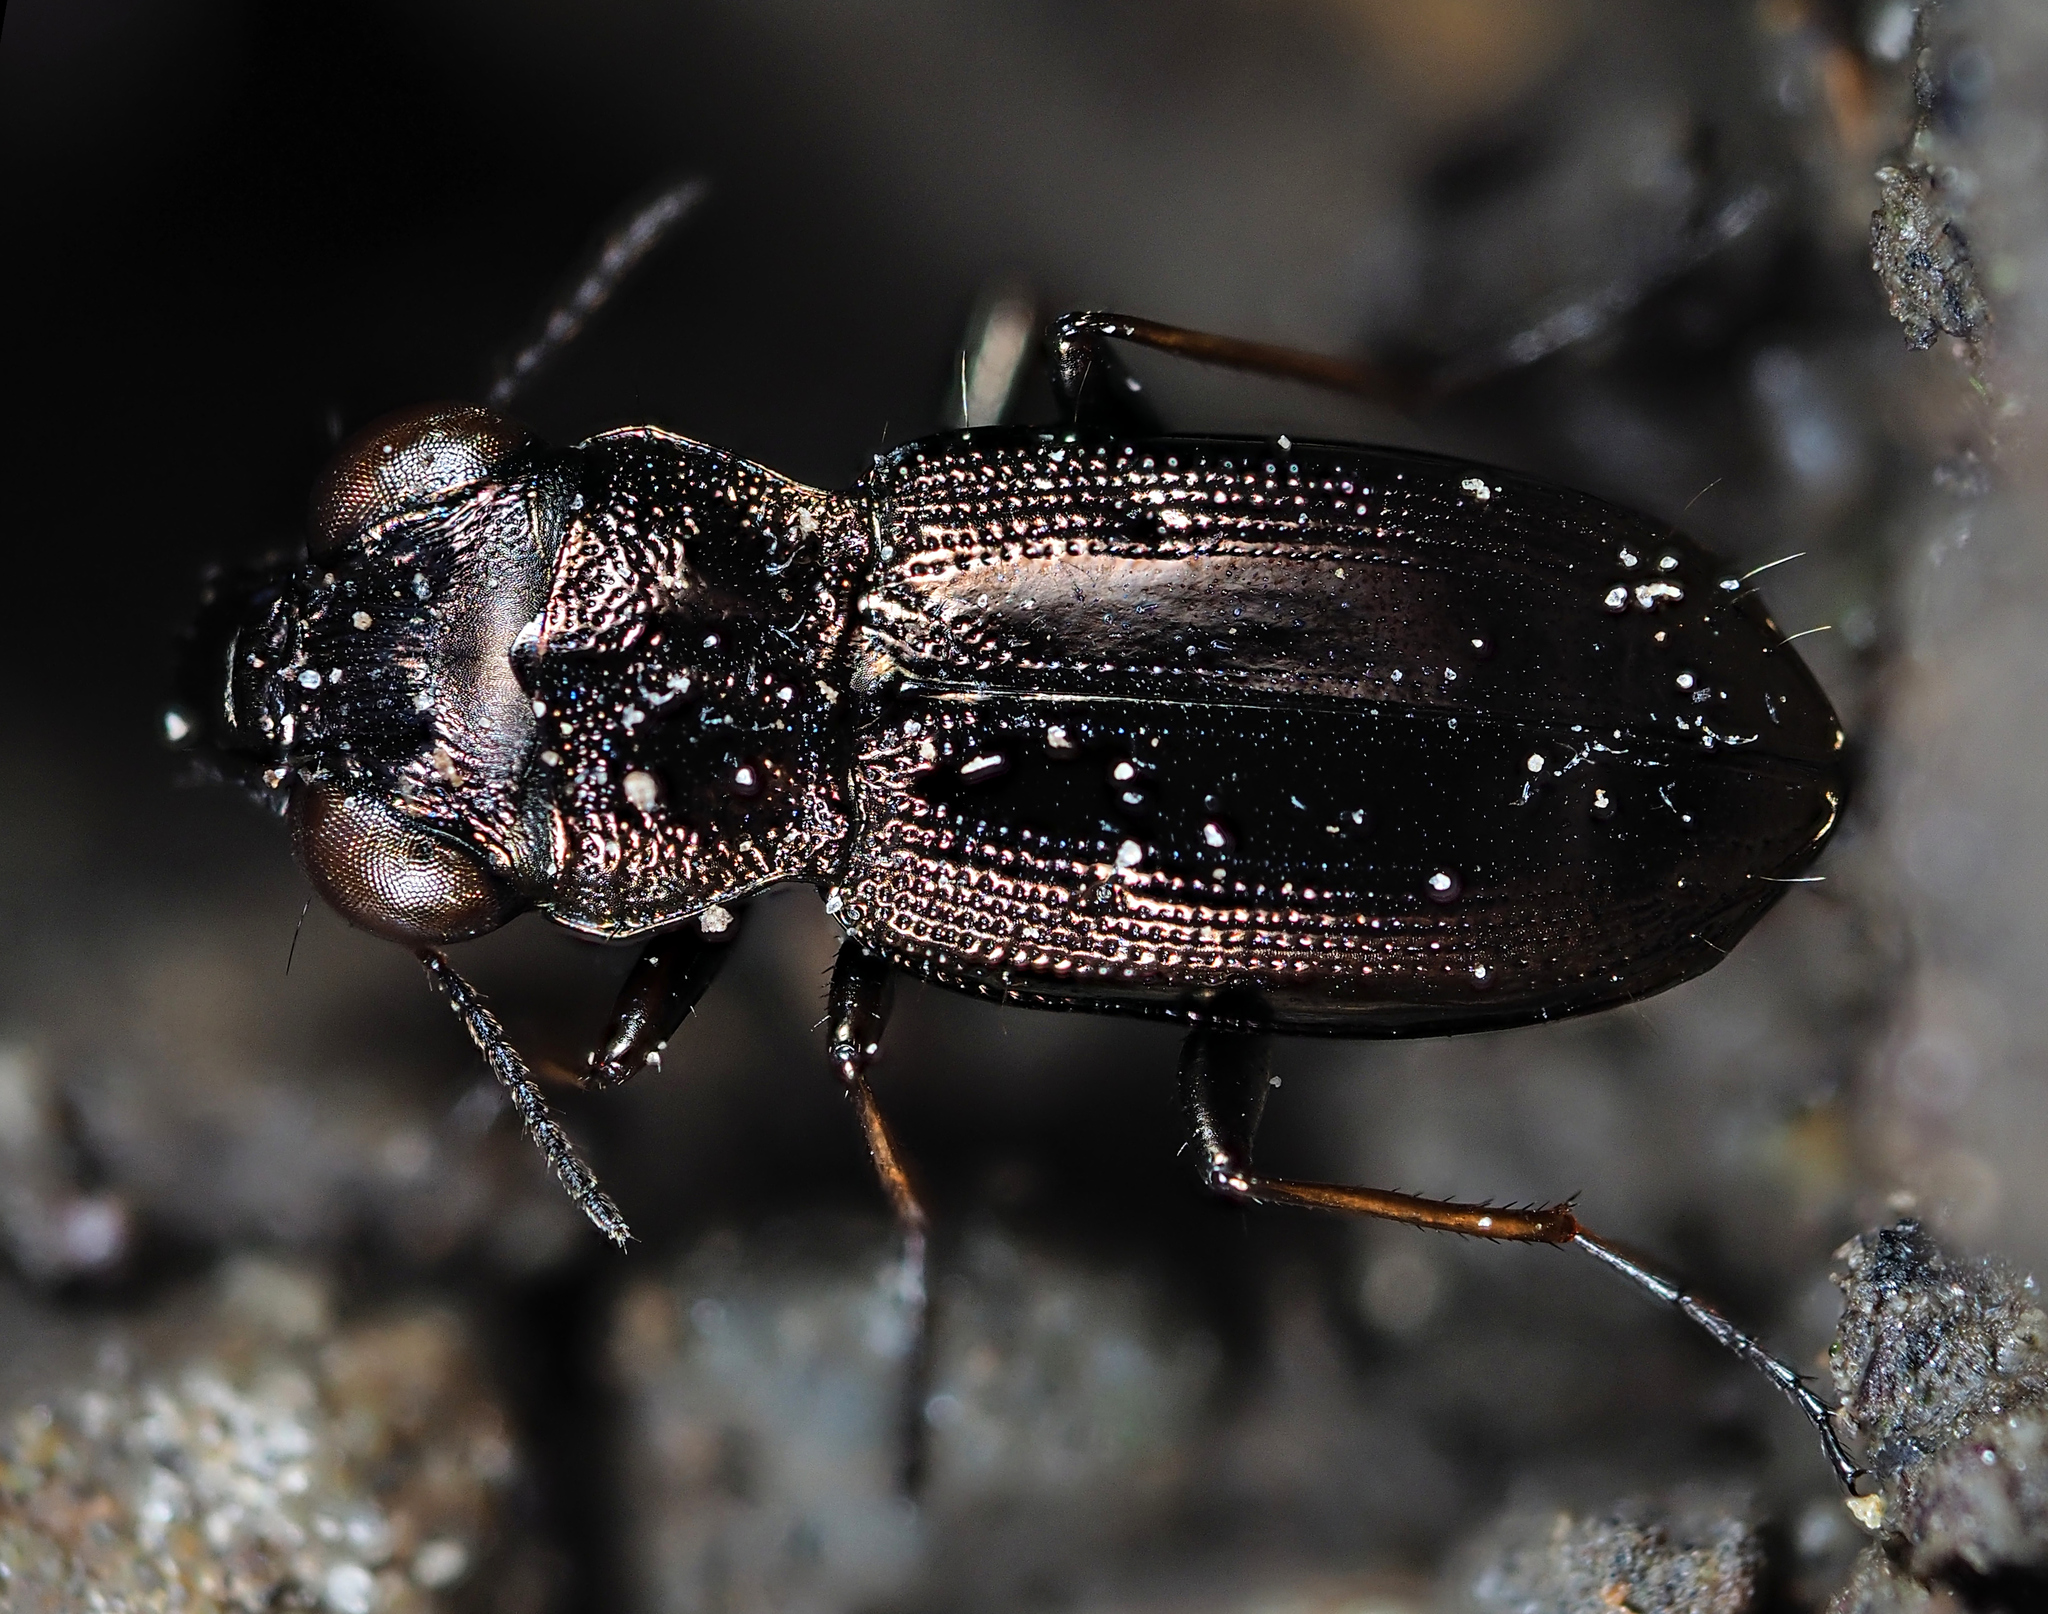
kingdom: Animalia
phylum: Arthropoda
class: Insecta
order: Coleoptera
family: Carabidae
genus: Notiophilus
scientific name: Notiophilus biguttatus
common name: Spotted gazelle beetle
